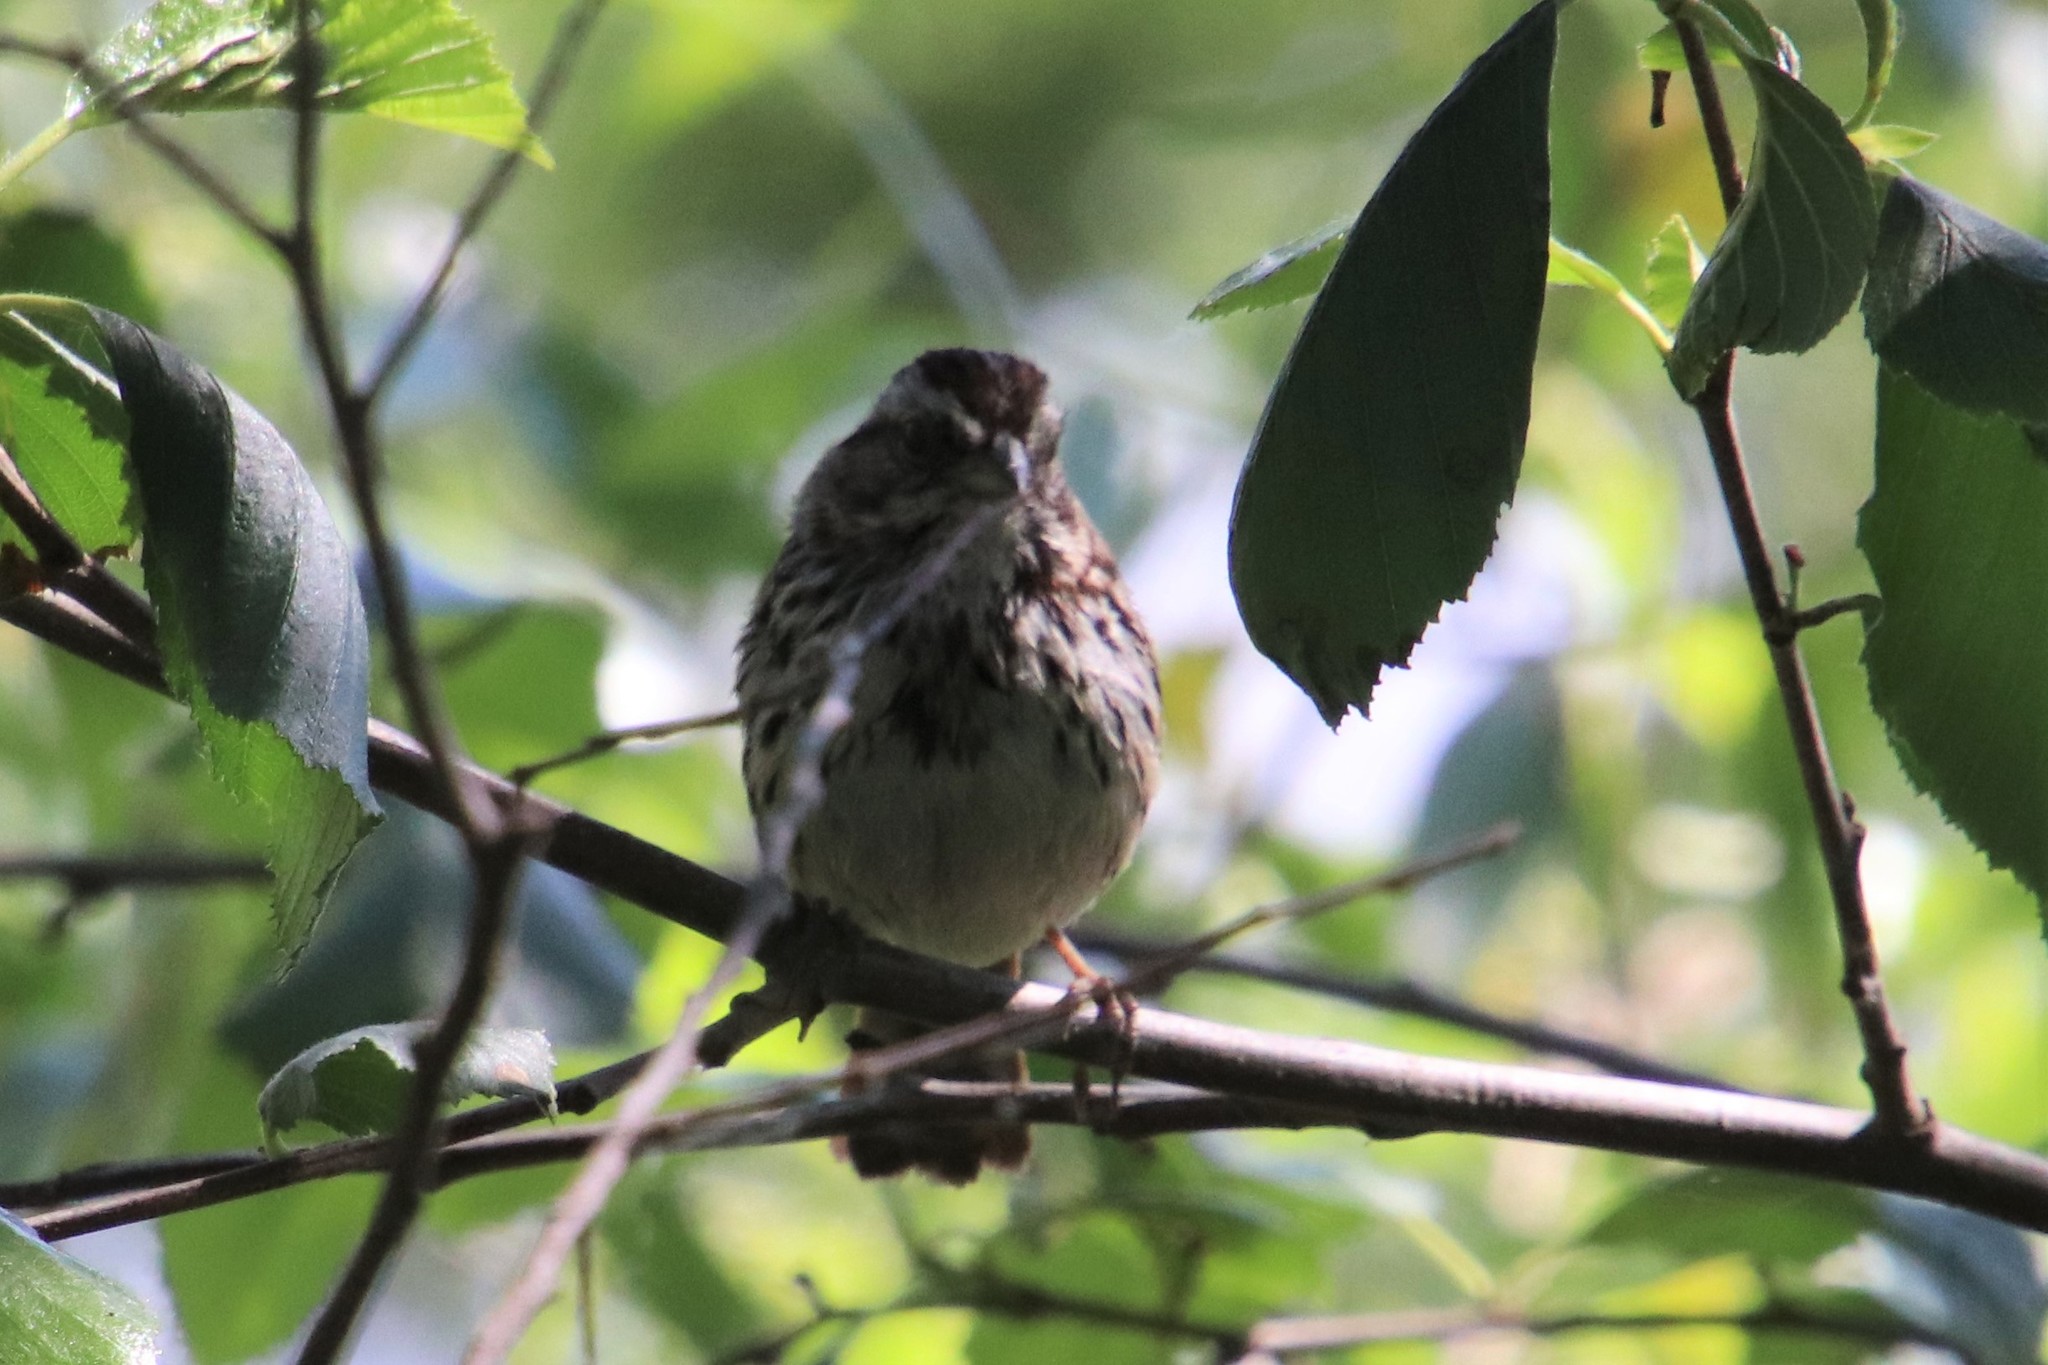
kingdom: Animalia
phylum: Chordata
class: Aves
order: Passeriformes
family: Passerellidae
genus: Melospiza
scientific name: Melospiza melodia
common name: Song sparrow
